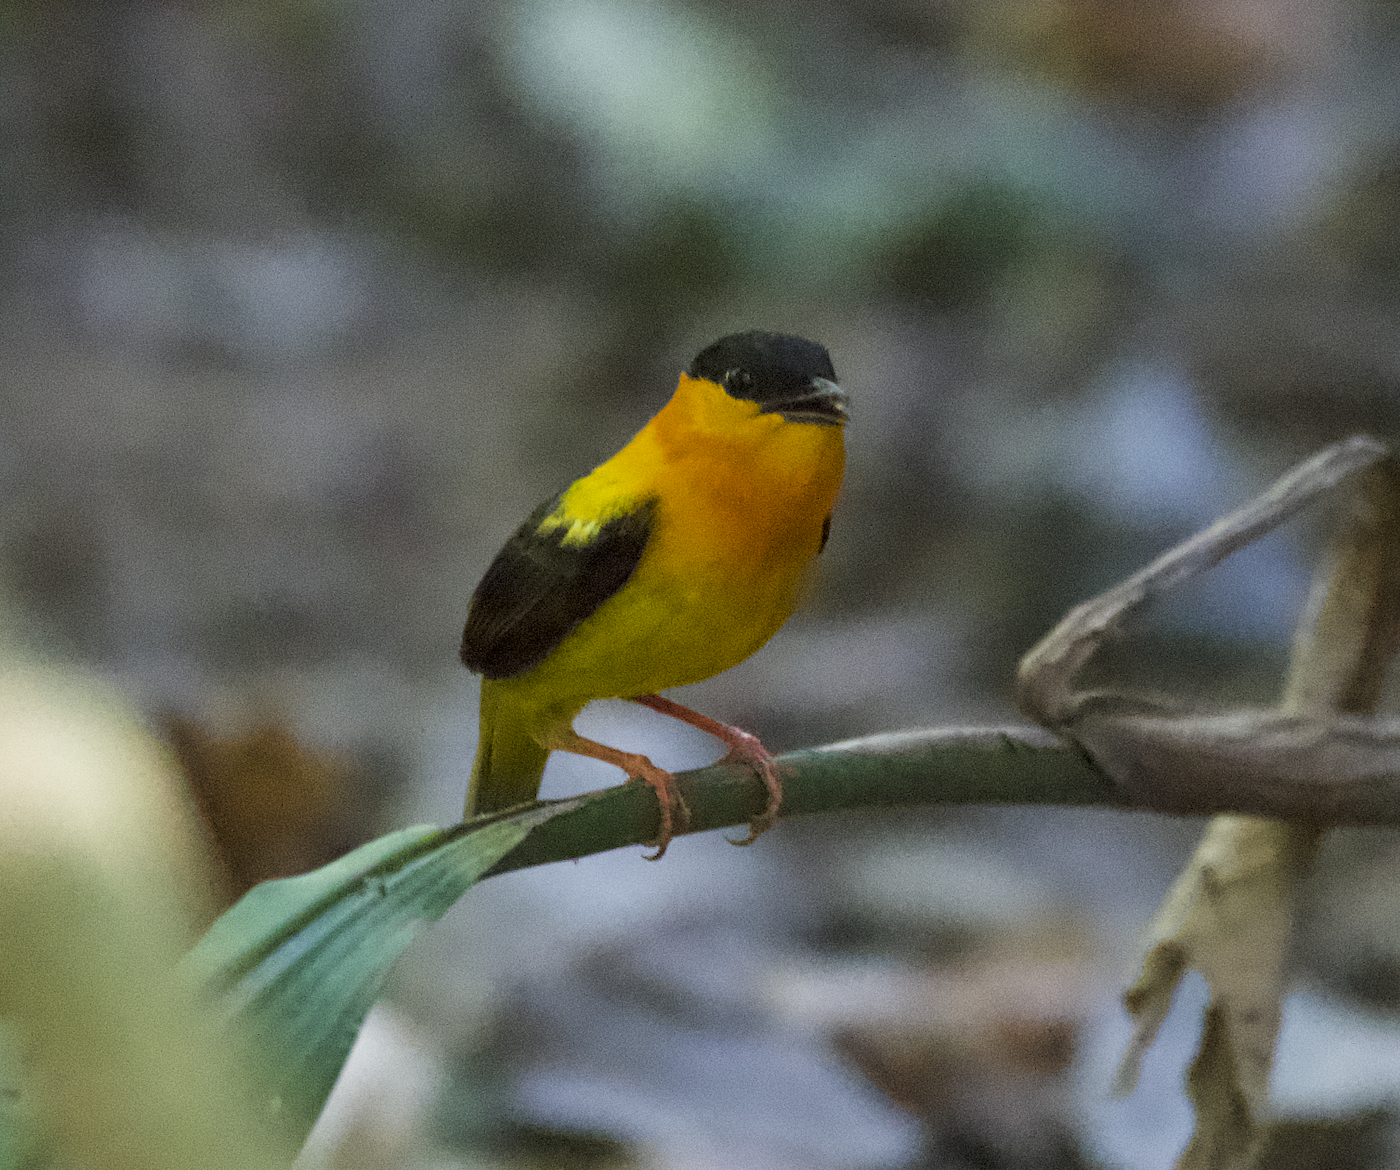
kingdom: Animalia
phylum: Chordata
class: Aves
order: Passeriformes
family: Pipridae
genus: Manacus
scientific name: Manacus aurantiacus
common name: Orange-collared manakin
